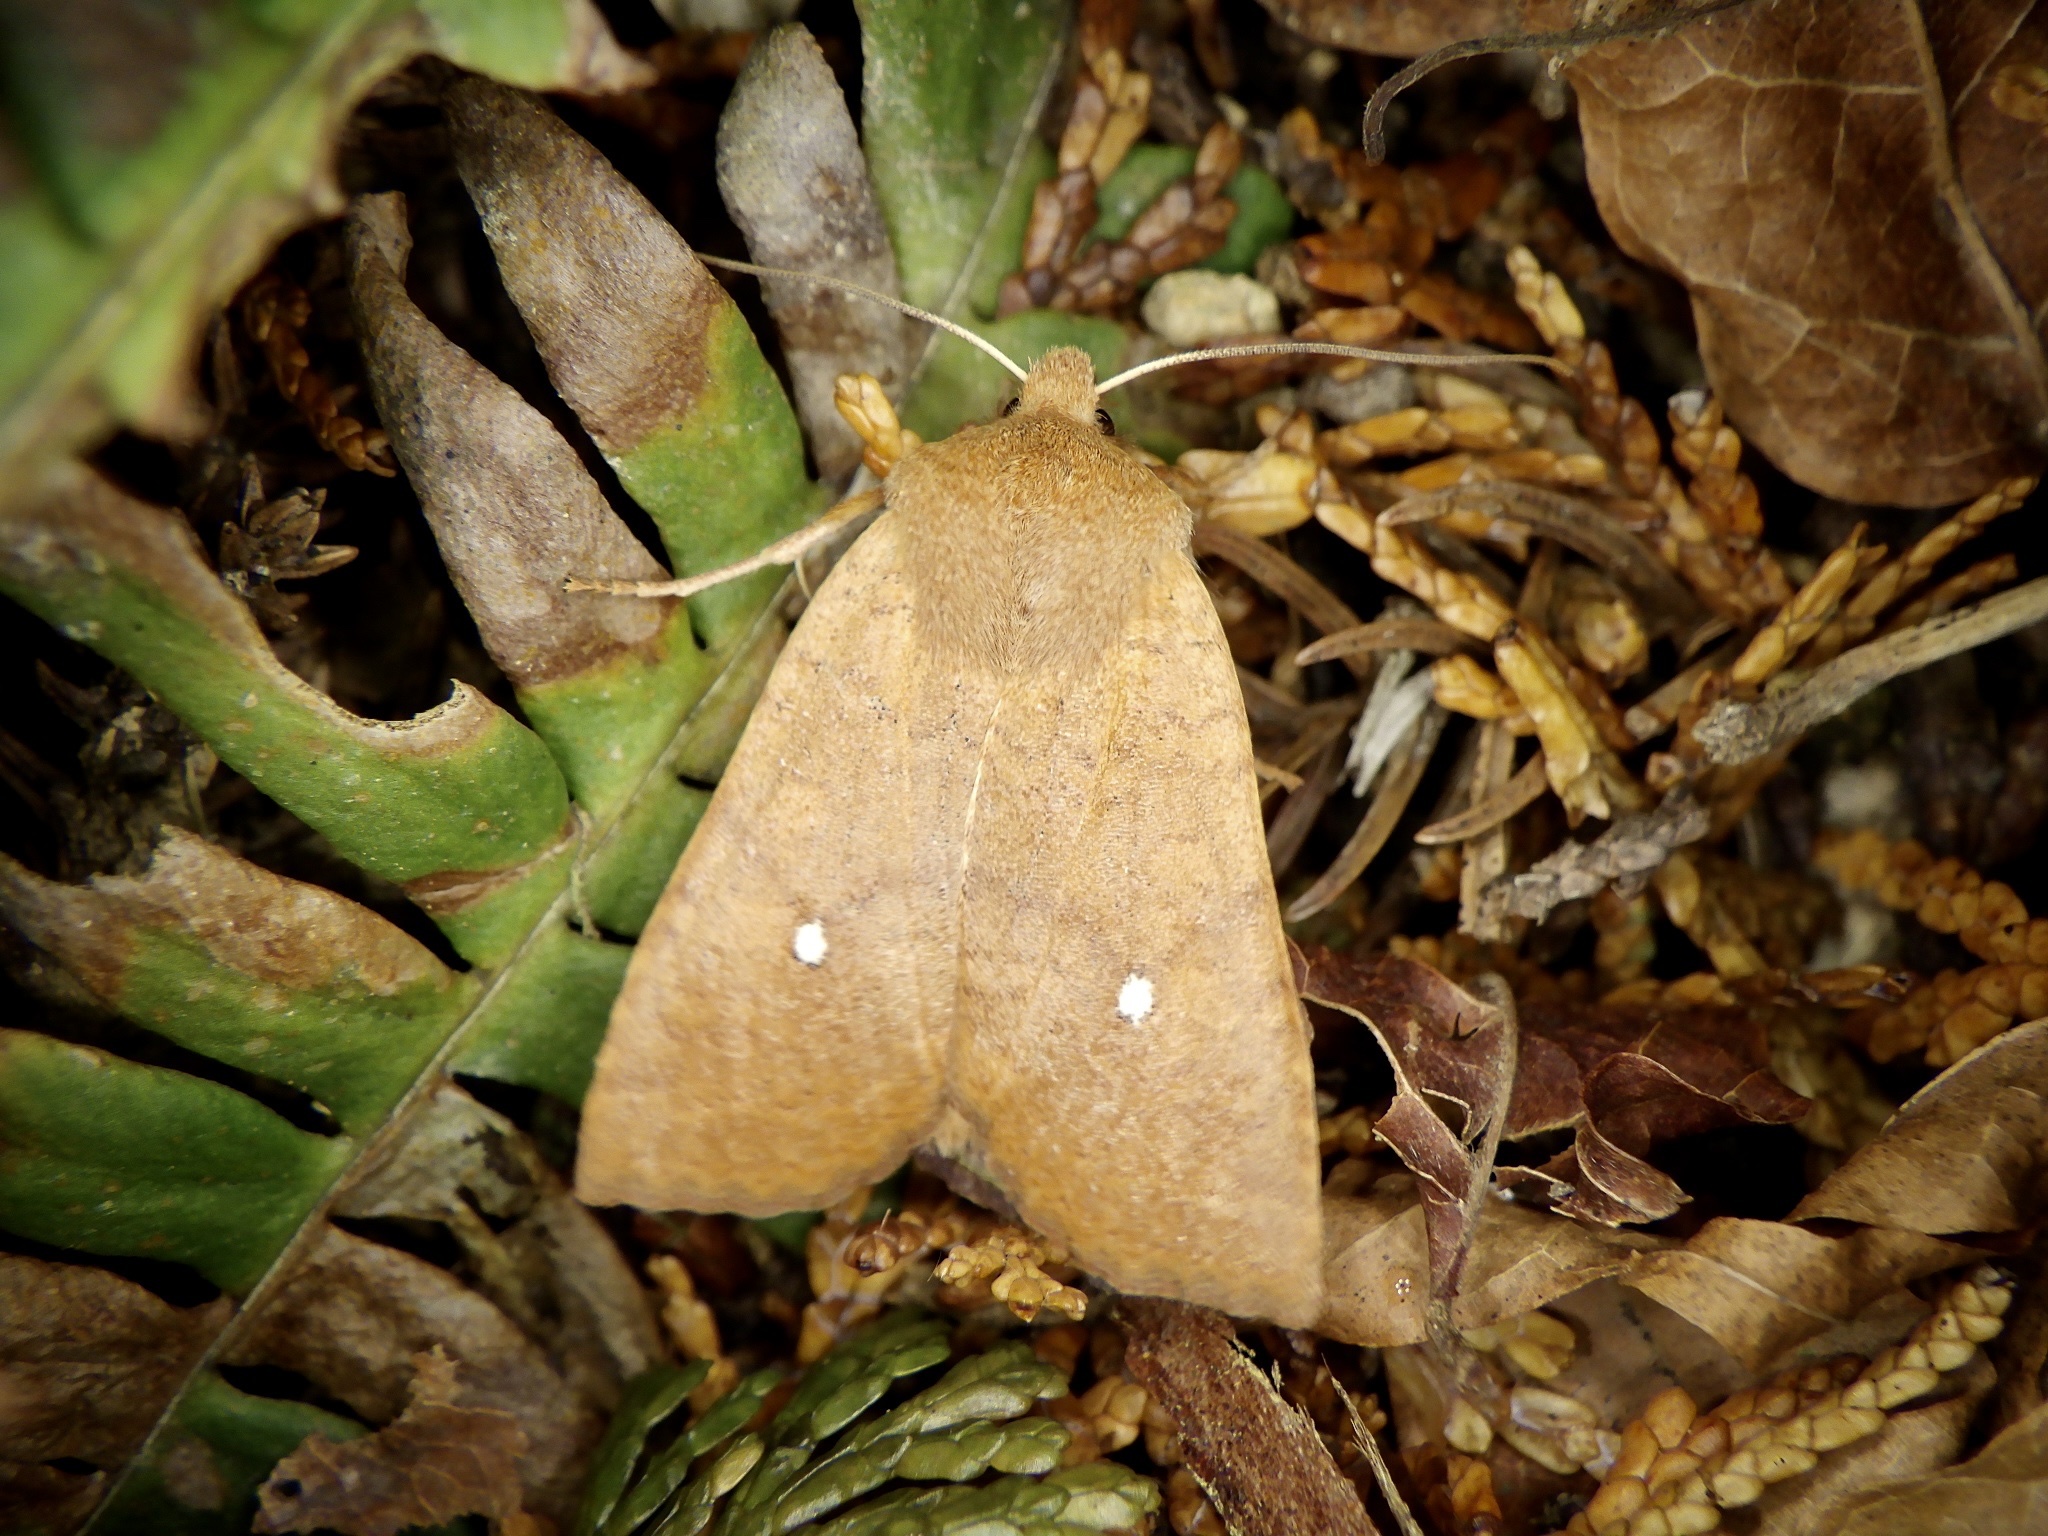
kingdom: Animalia
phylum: Arthropoda
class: Insecta
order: Lepidoptera
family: Noctuidae
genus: Conistra
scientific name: Conistra albipuncta
